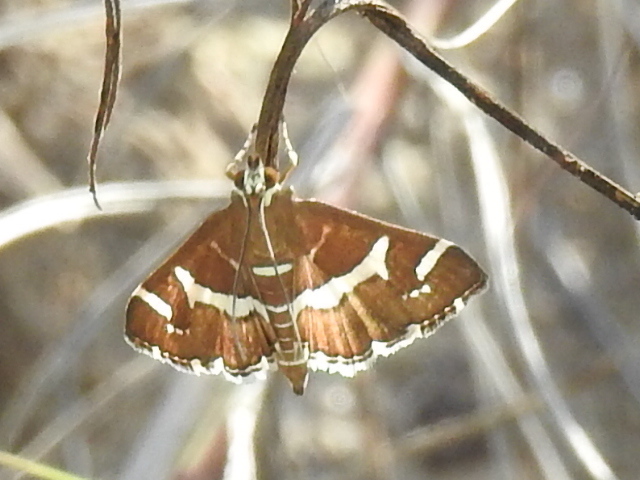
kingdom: Animalia
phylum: Arthropoda
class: Insecta
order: Lepidoptera
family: Crambidae
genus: Spoladea
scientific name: Spoladea recurvalis
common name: Beet webworm moth
